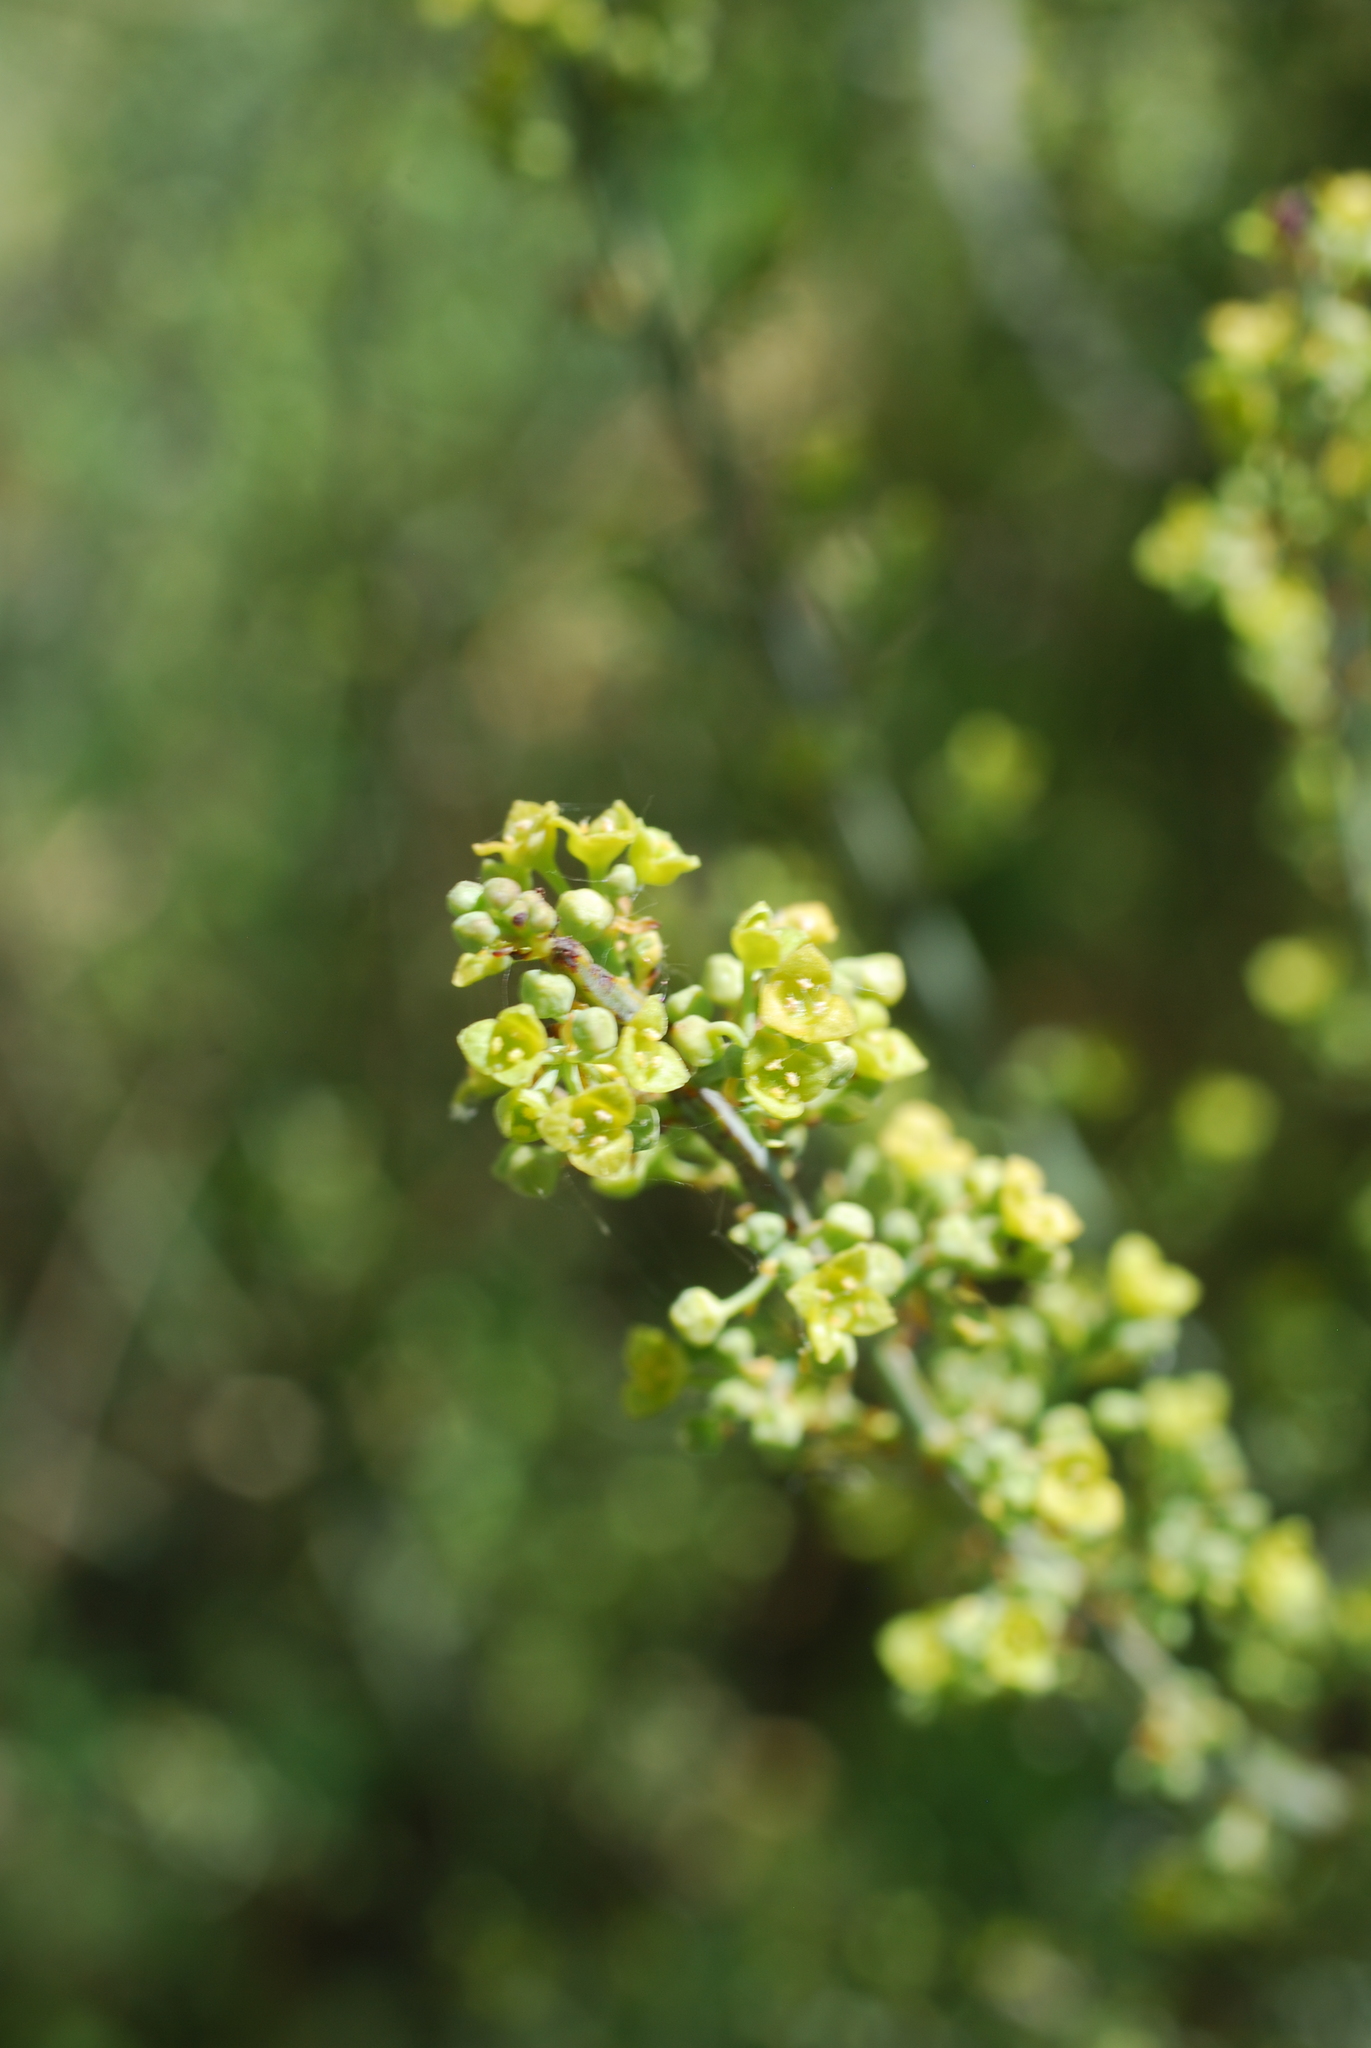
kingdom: Plantae
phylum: Tracheophyta
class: Magnoliopsida
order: Santalales
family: Santalaceae
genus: Osyris
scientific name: Osyris alba
